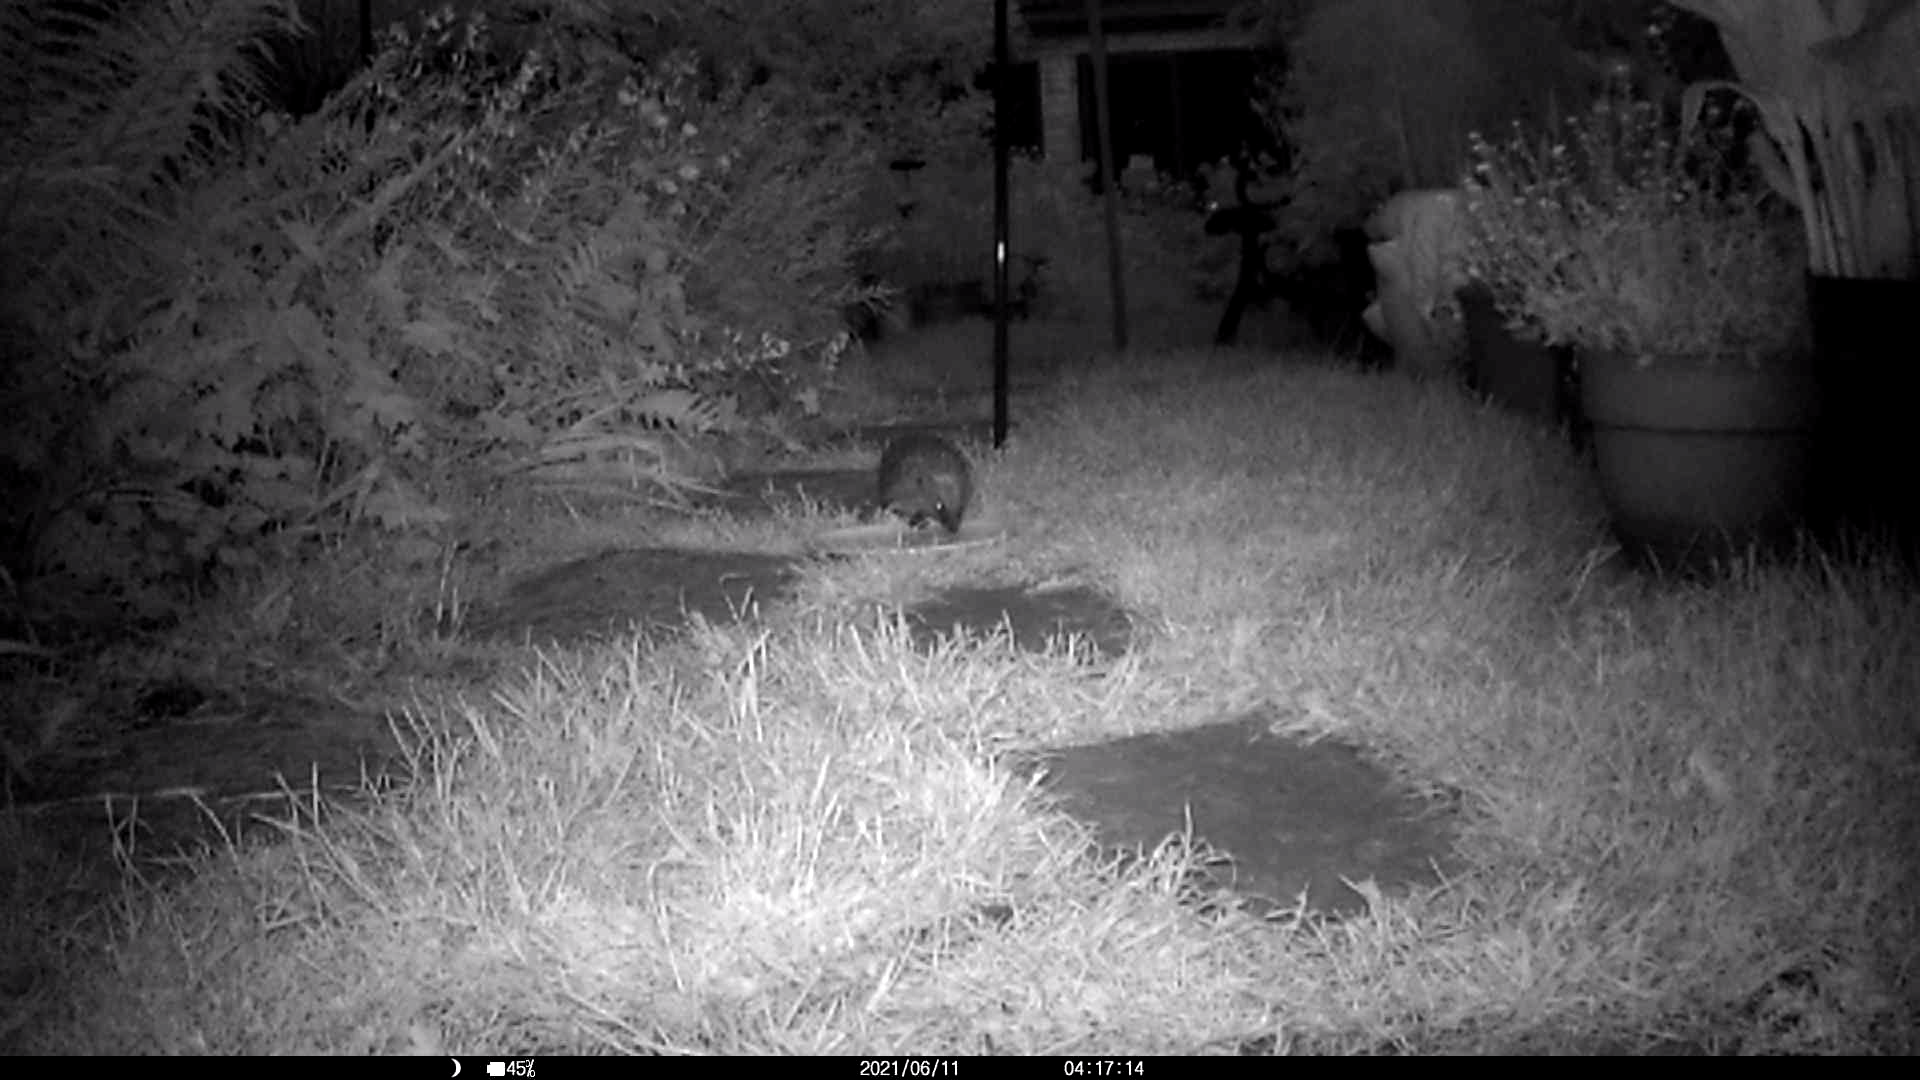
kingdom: Animalia
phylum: Chordata
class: Mammalia
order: Erinaceomorpha
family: Erinaceidae
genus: Erinaceus
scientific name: Erinaceus europaeus
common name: West european hedgehog
